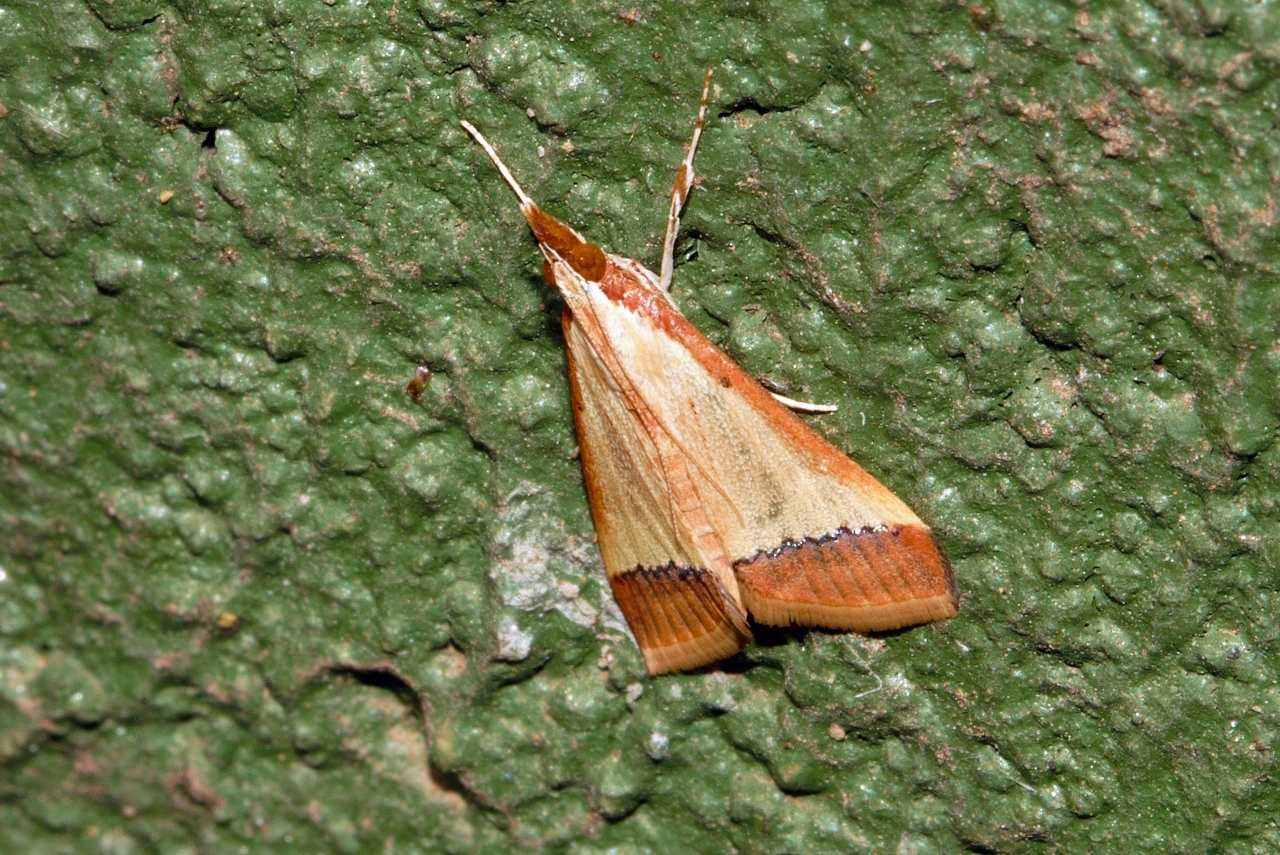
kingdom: Animalia
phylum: Arthropoda
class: Insecta
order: Lepidoptera
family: Crambidae
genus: Autocharis
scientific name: Autocharis fessalis
